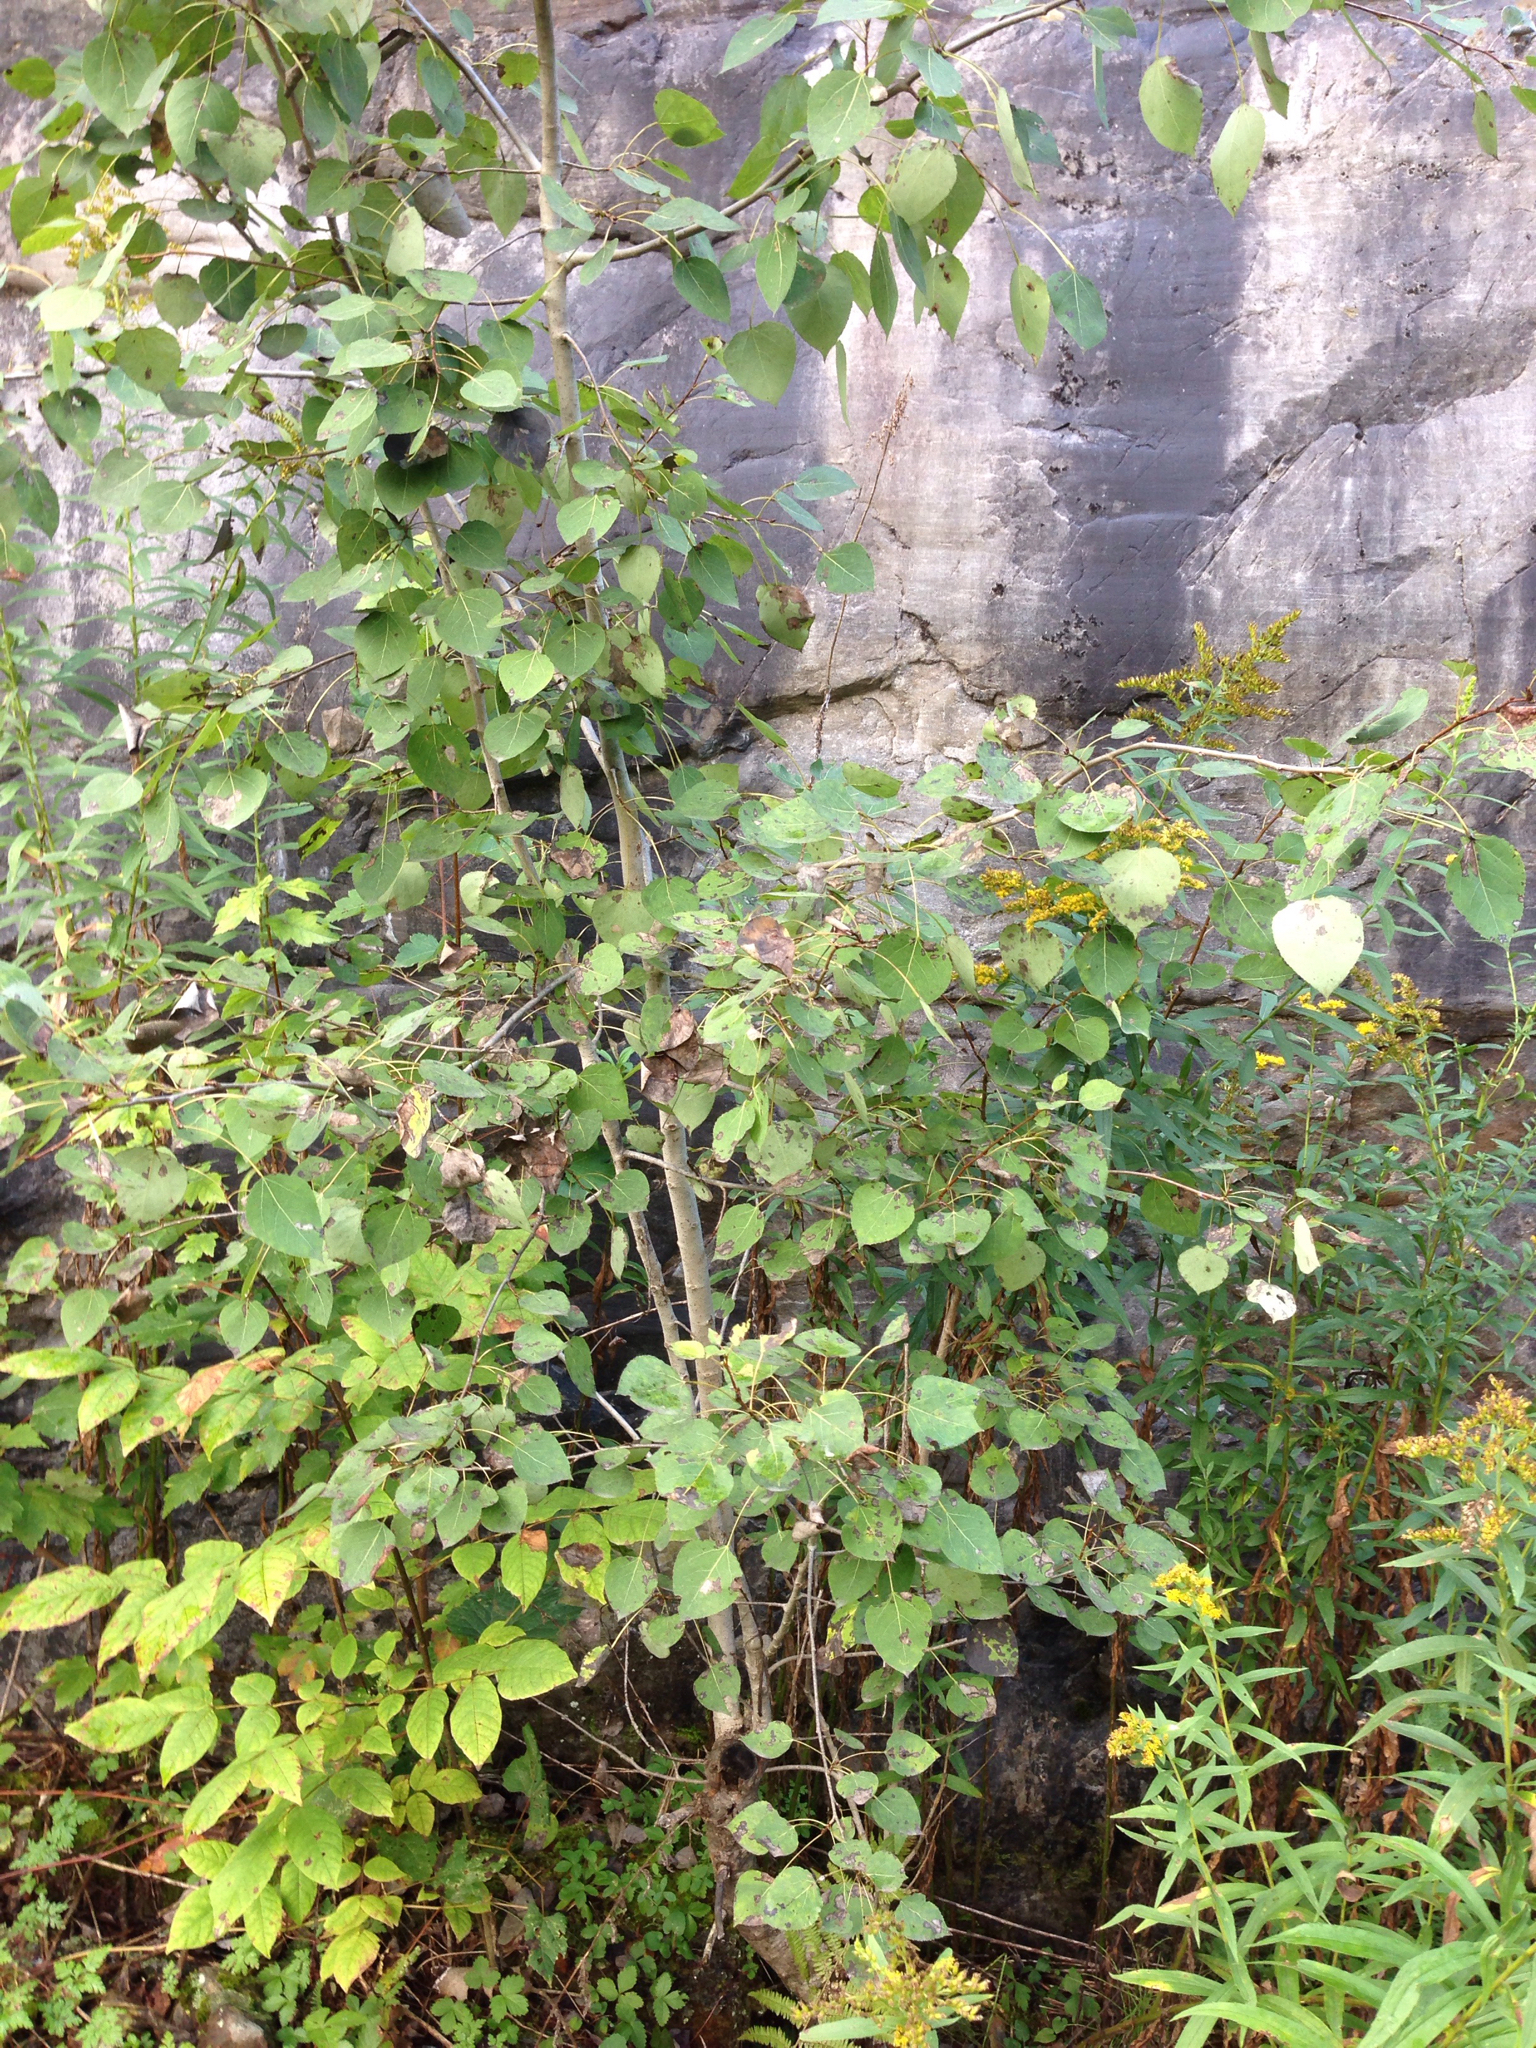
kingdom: Plantae
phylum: Tracheophyta
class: Magnoliopsida
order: Malpighiales
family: Salicaceae
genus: Populus
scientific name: Populus tremuloides
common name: Quaking aspen
